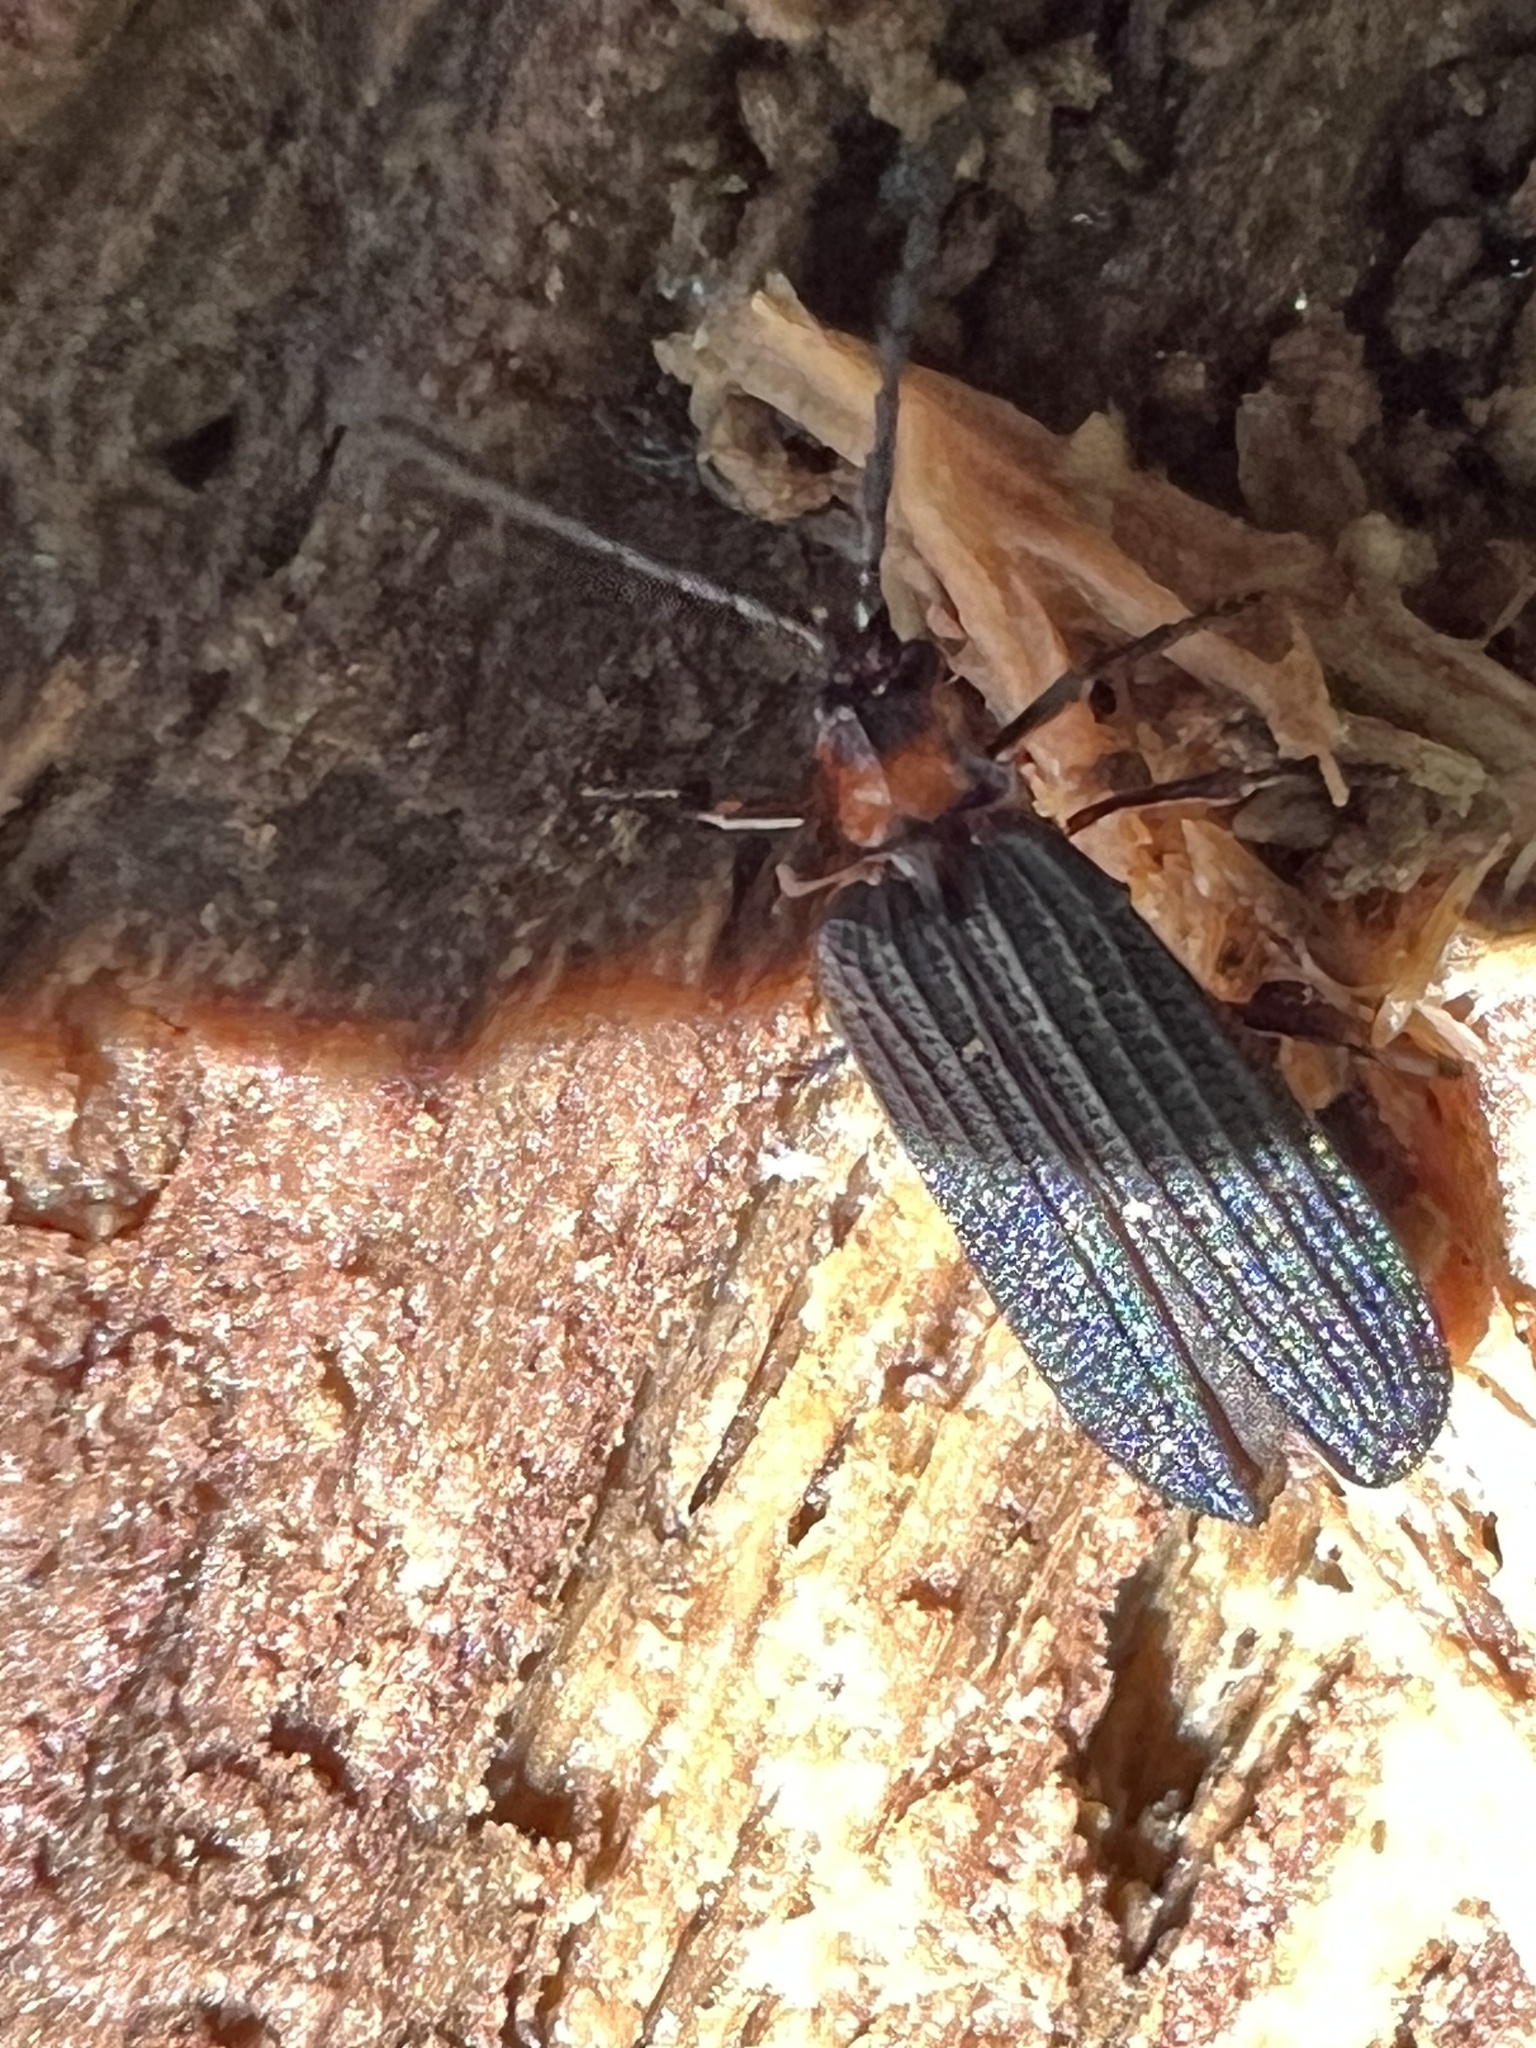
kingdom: Animalia
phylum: Arthropoda
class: Insecta
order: Coleoptera
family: Lycidae
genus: Lopheros
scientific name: Lopheros fraternus
